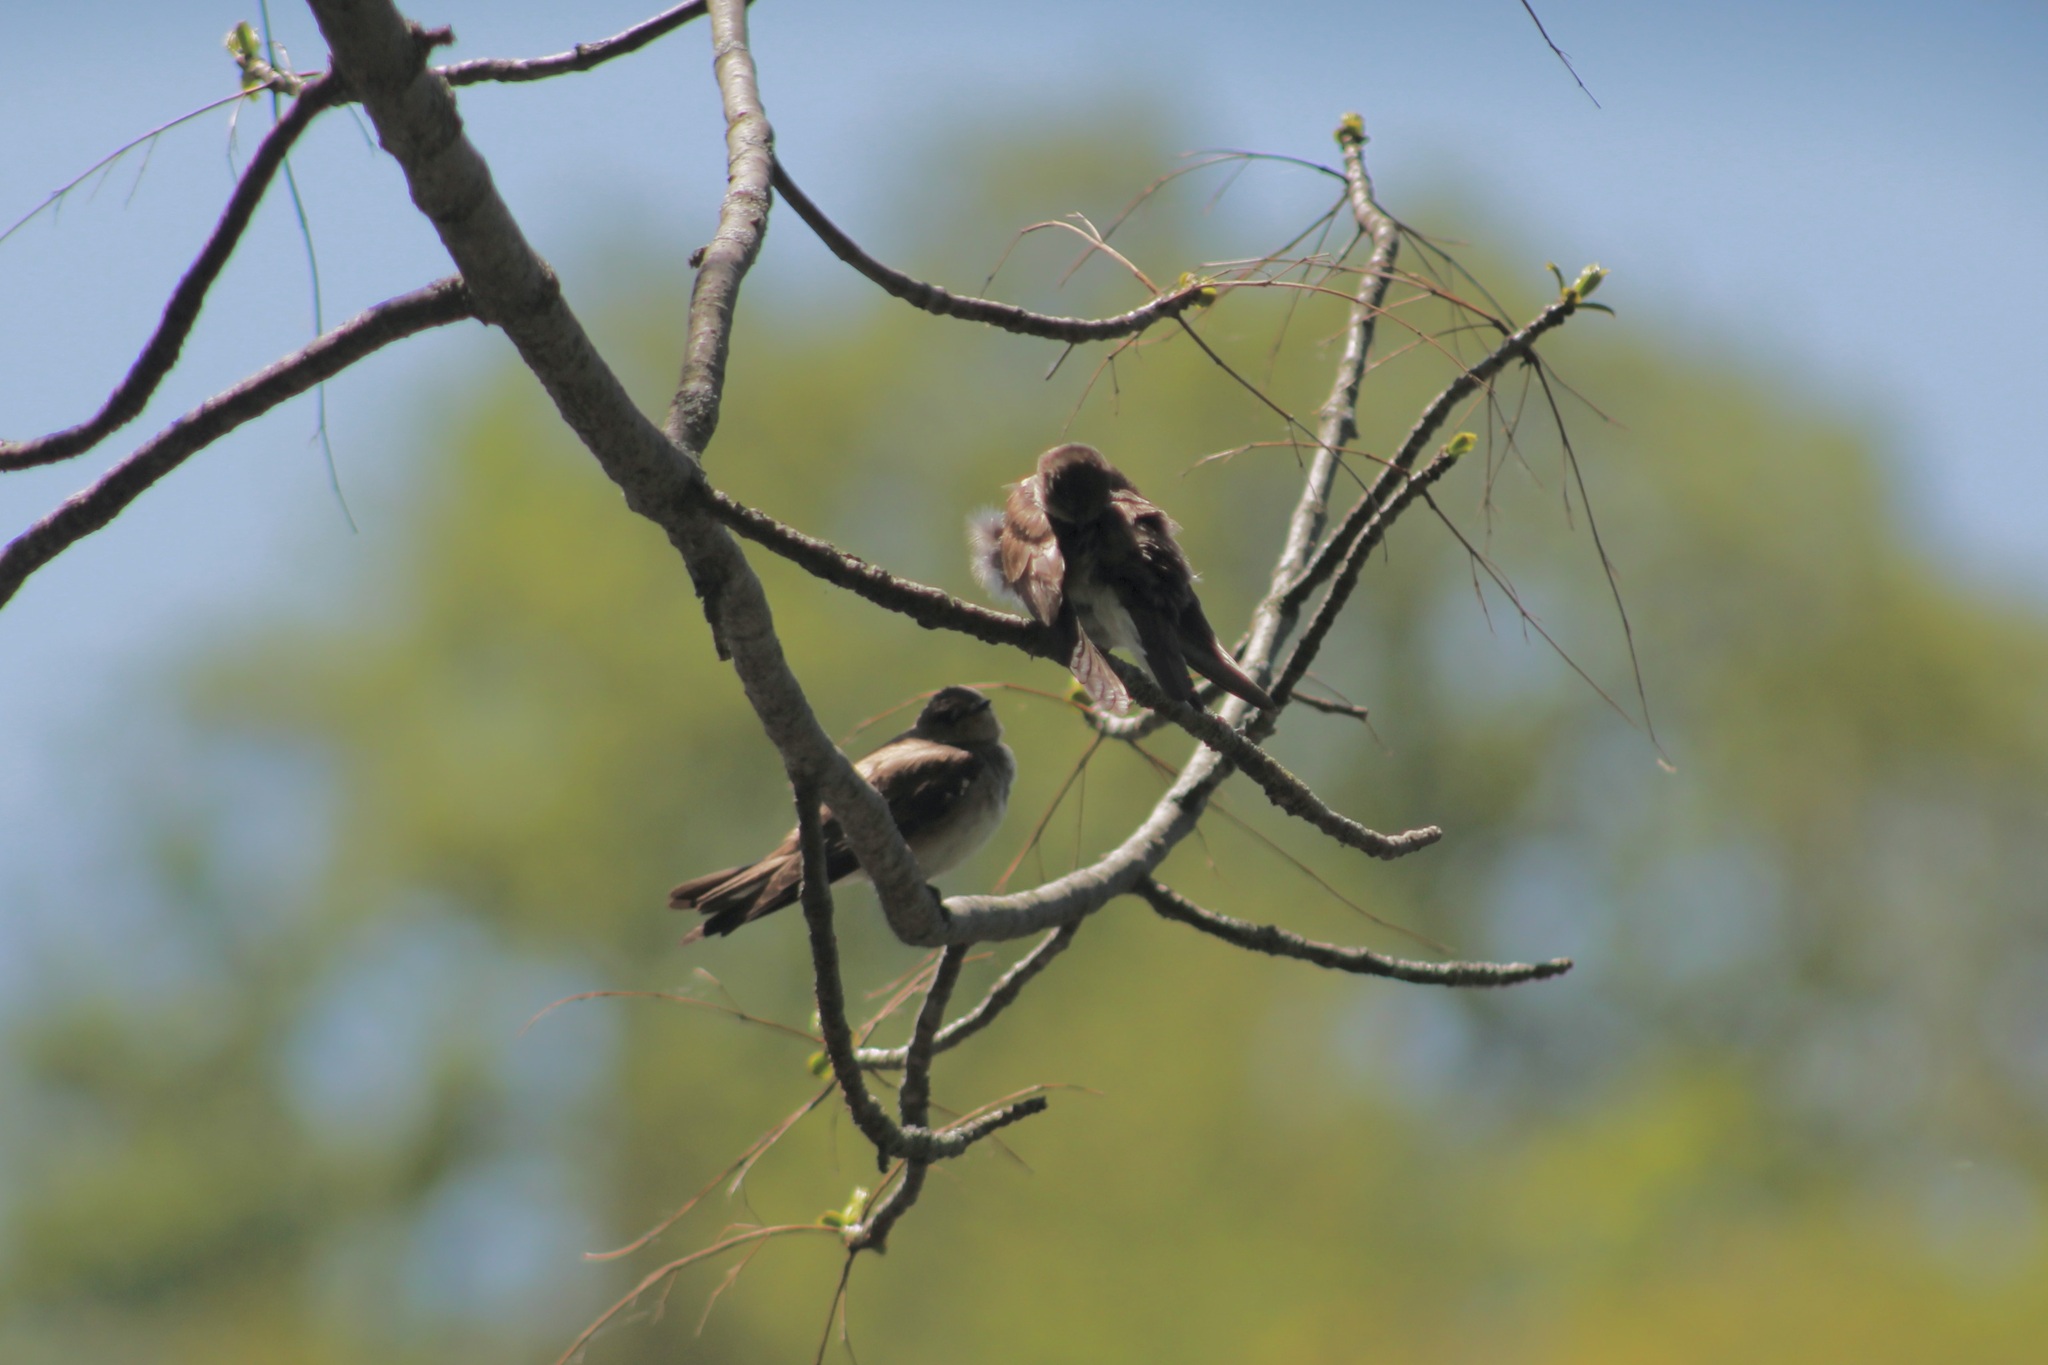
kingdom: Animalia
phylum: Chordata
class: Aves
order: Passeriformes
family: Hirundinidae
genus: Stelgidopteryx
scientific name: Stelgidopteryx serripennis
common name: Northern rough-winged swallow
